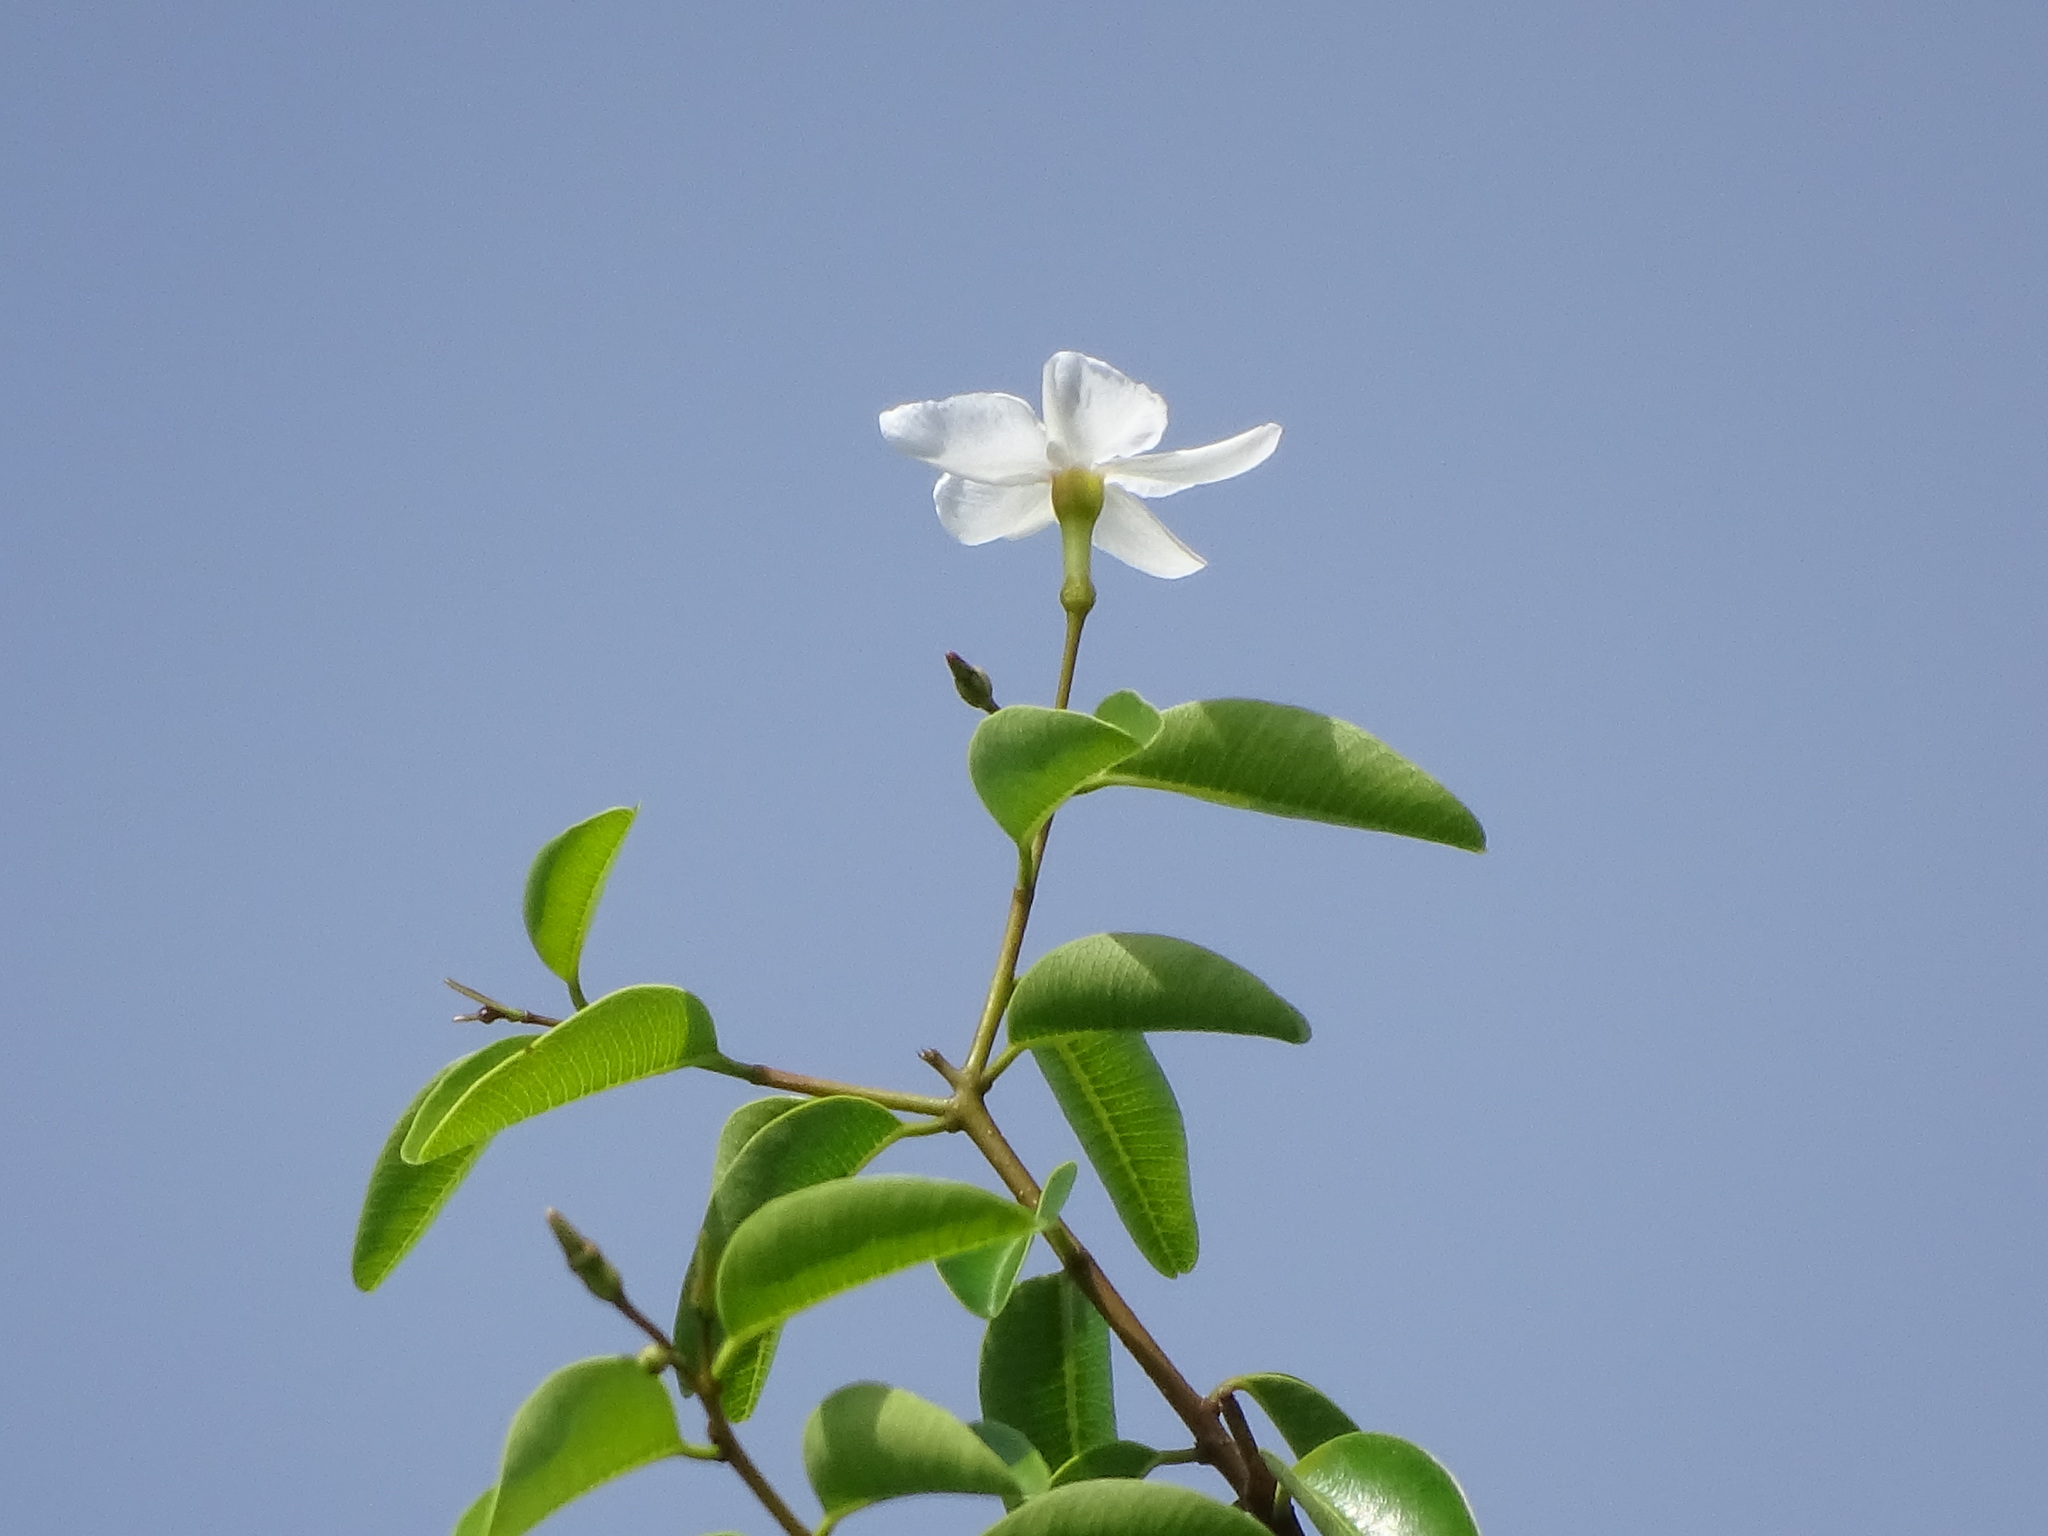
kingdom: Plantae
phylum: Tracheophyta
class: Magnoliopsida
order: Gentianales
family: Apocynaceae
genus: Cameraria
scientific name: Cameraria latifolia
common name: Savanna white poisonwood
